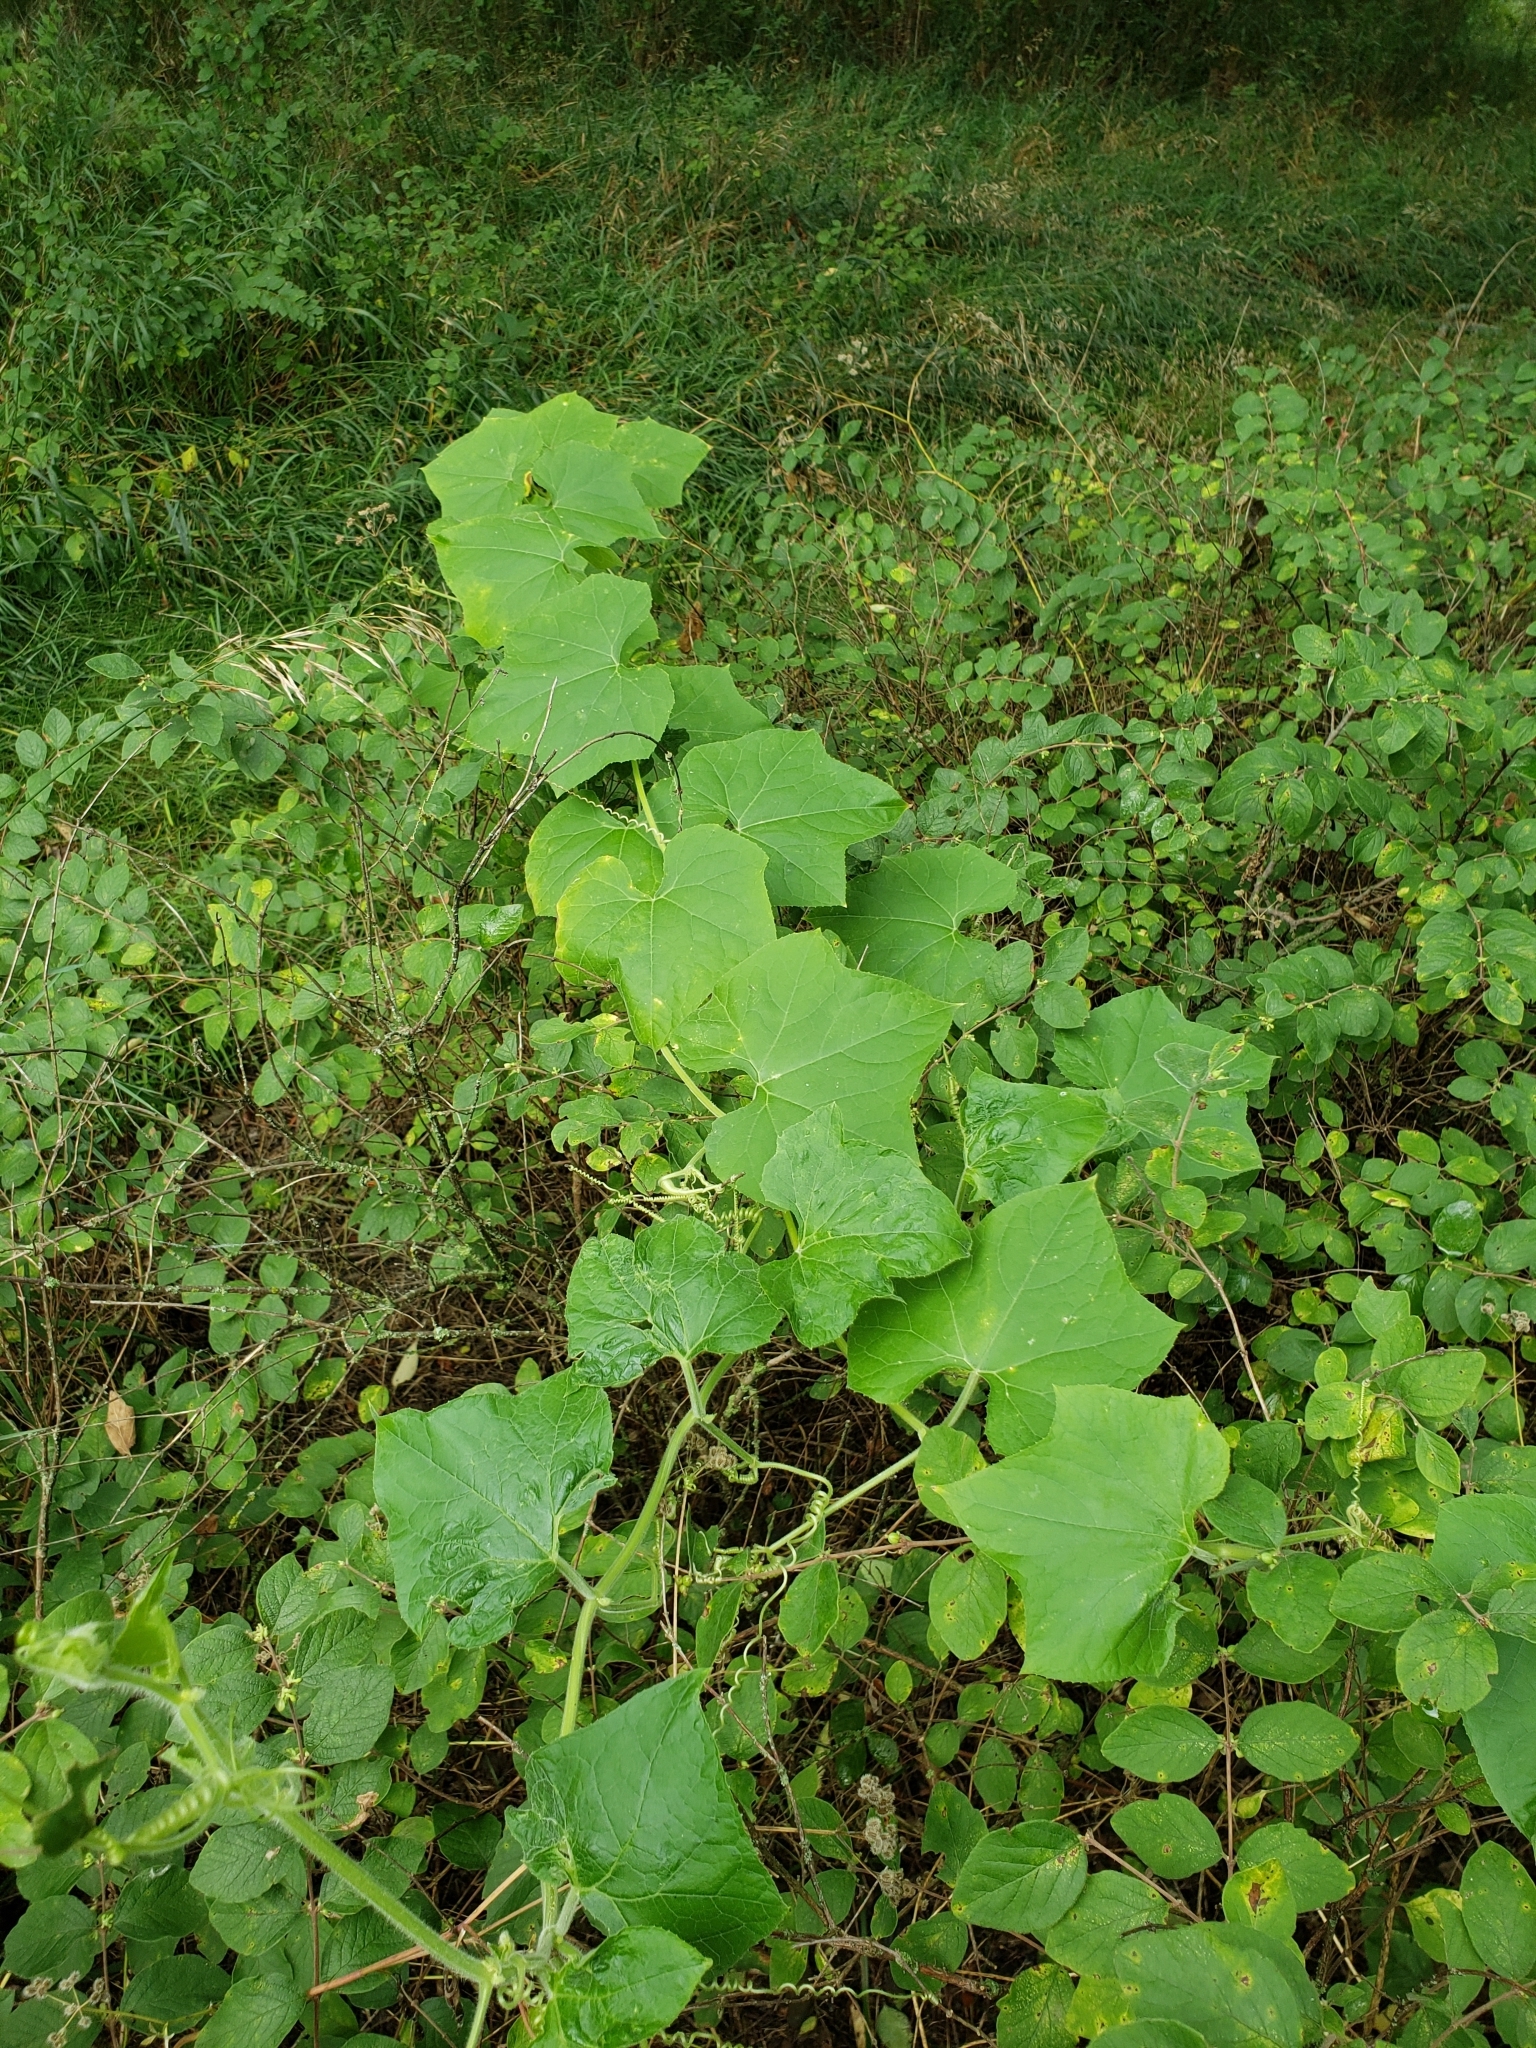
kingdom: Plantae
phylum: Tracheophyta
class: Magnoliopsida
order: Cucurbitales
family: Cucurbitaceae
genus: Sicyos
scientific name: Sicyos angulatus
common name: Angled burr cucumber
